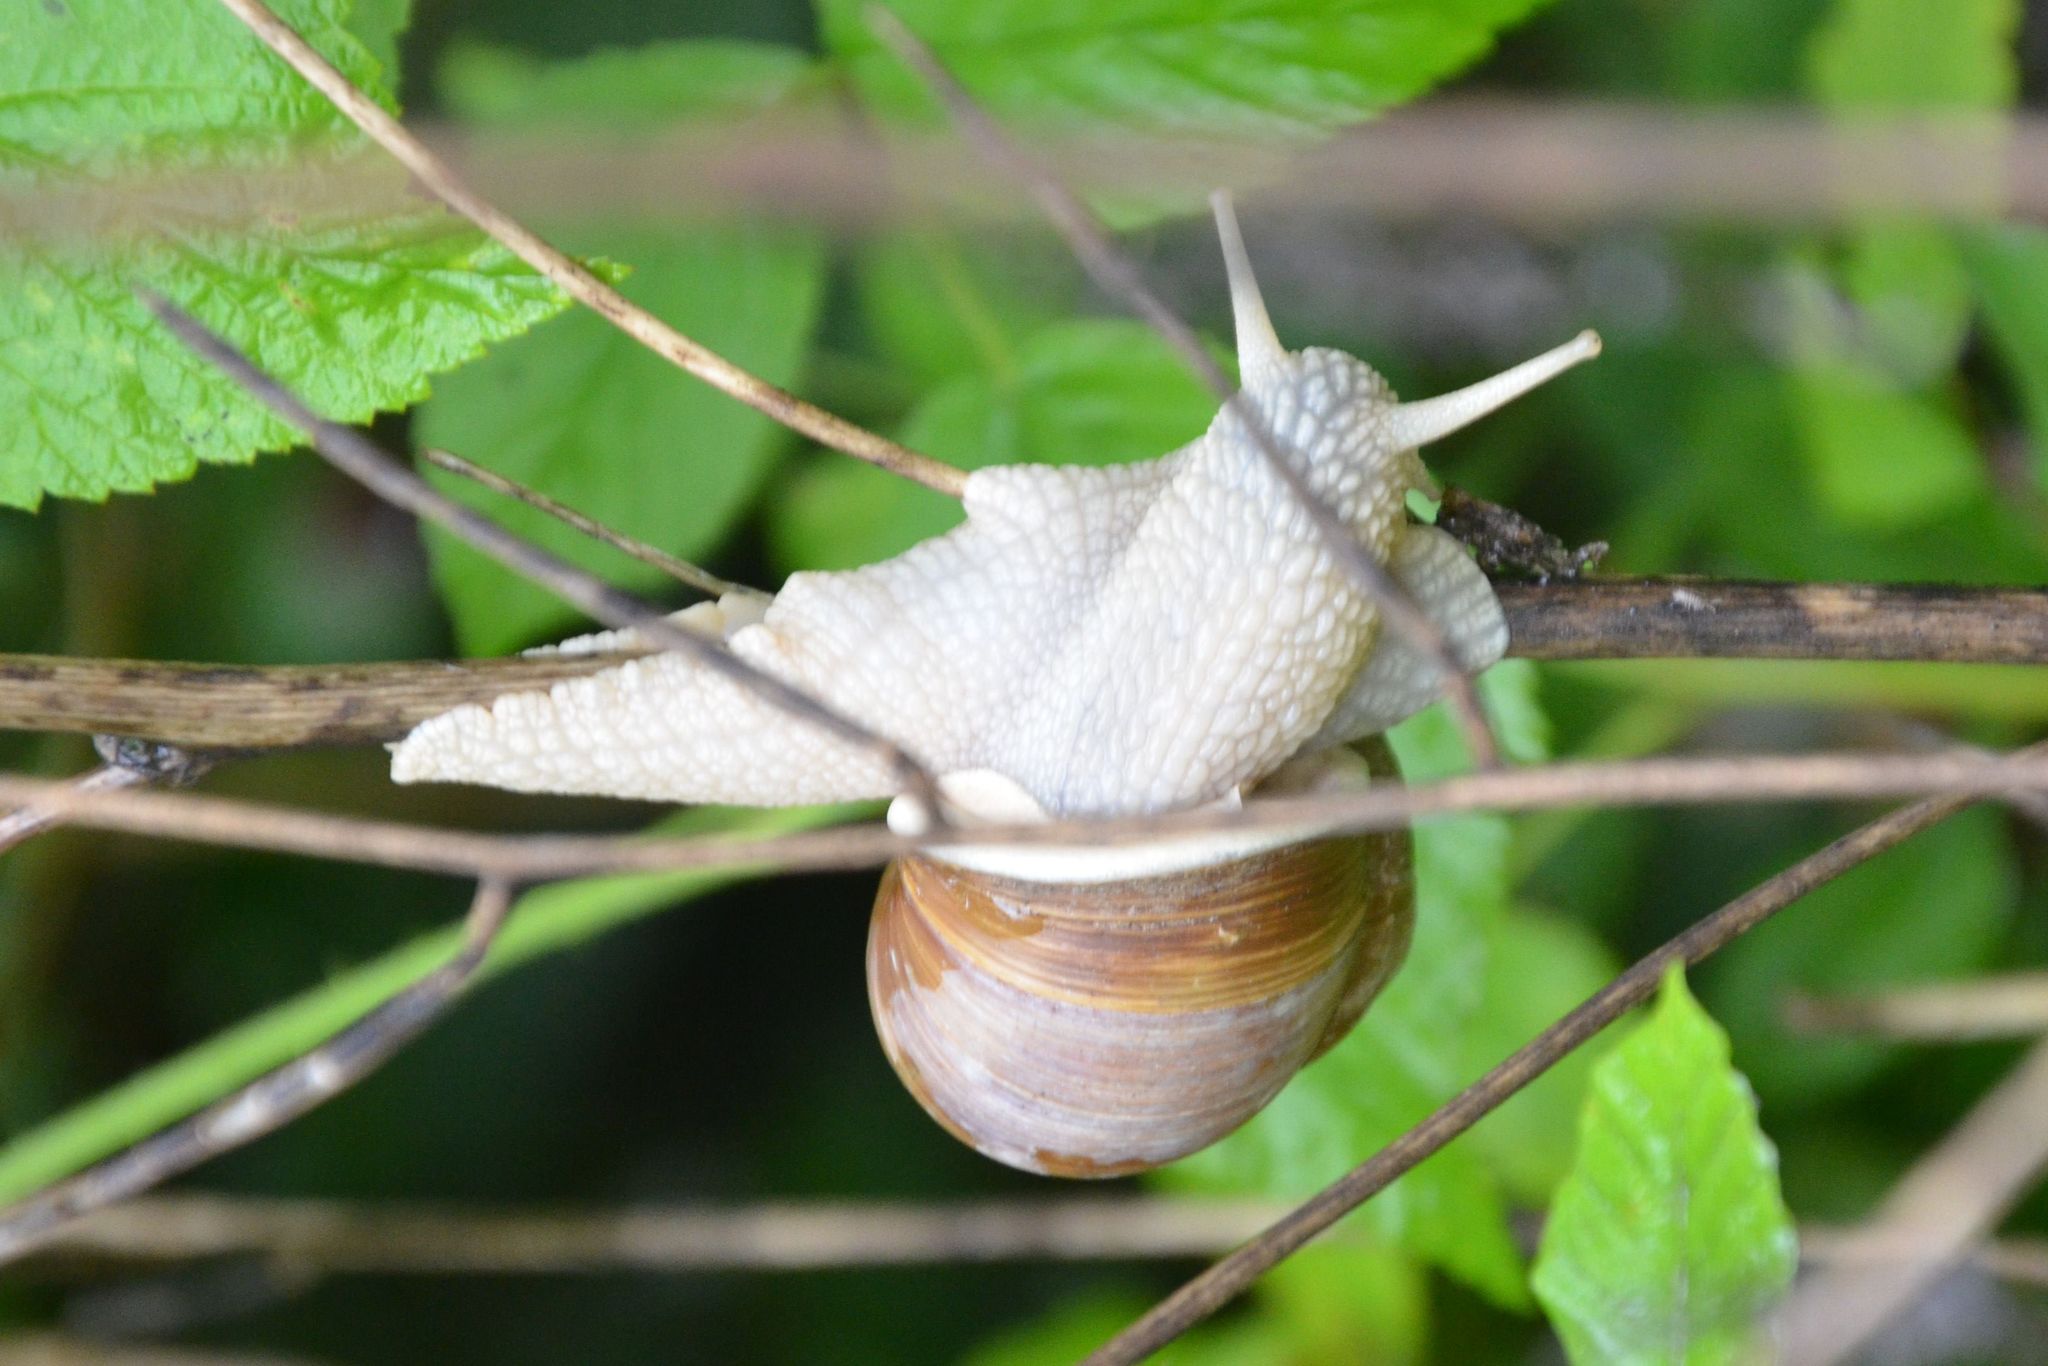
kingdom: Animalia
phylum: Mollusca
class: Gastropoda
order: Stylommatophora
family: Helicidae
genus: Helix
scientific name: Helix pomatia
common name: Roman snail
